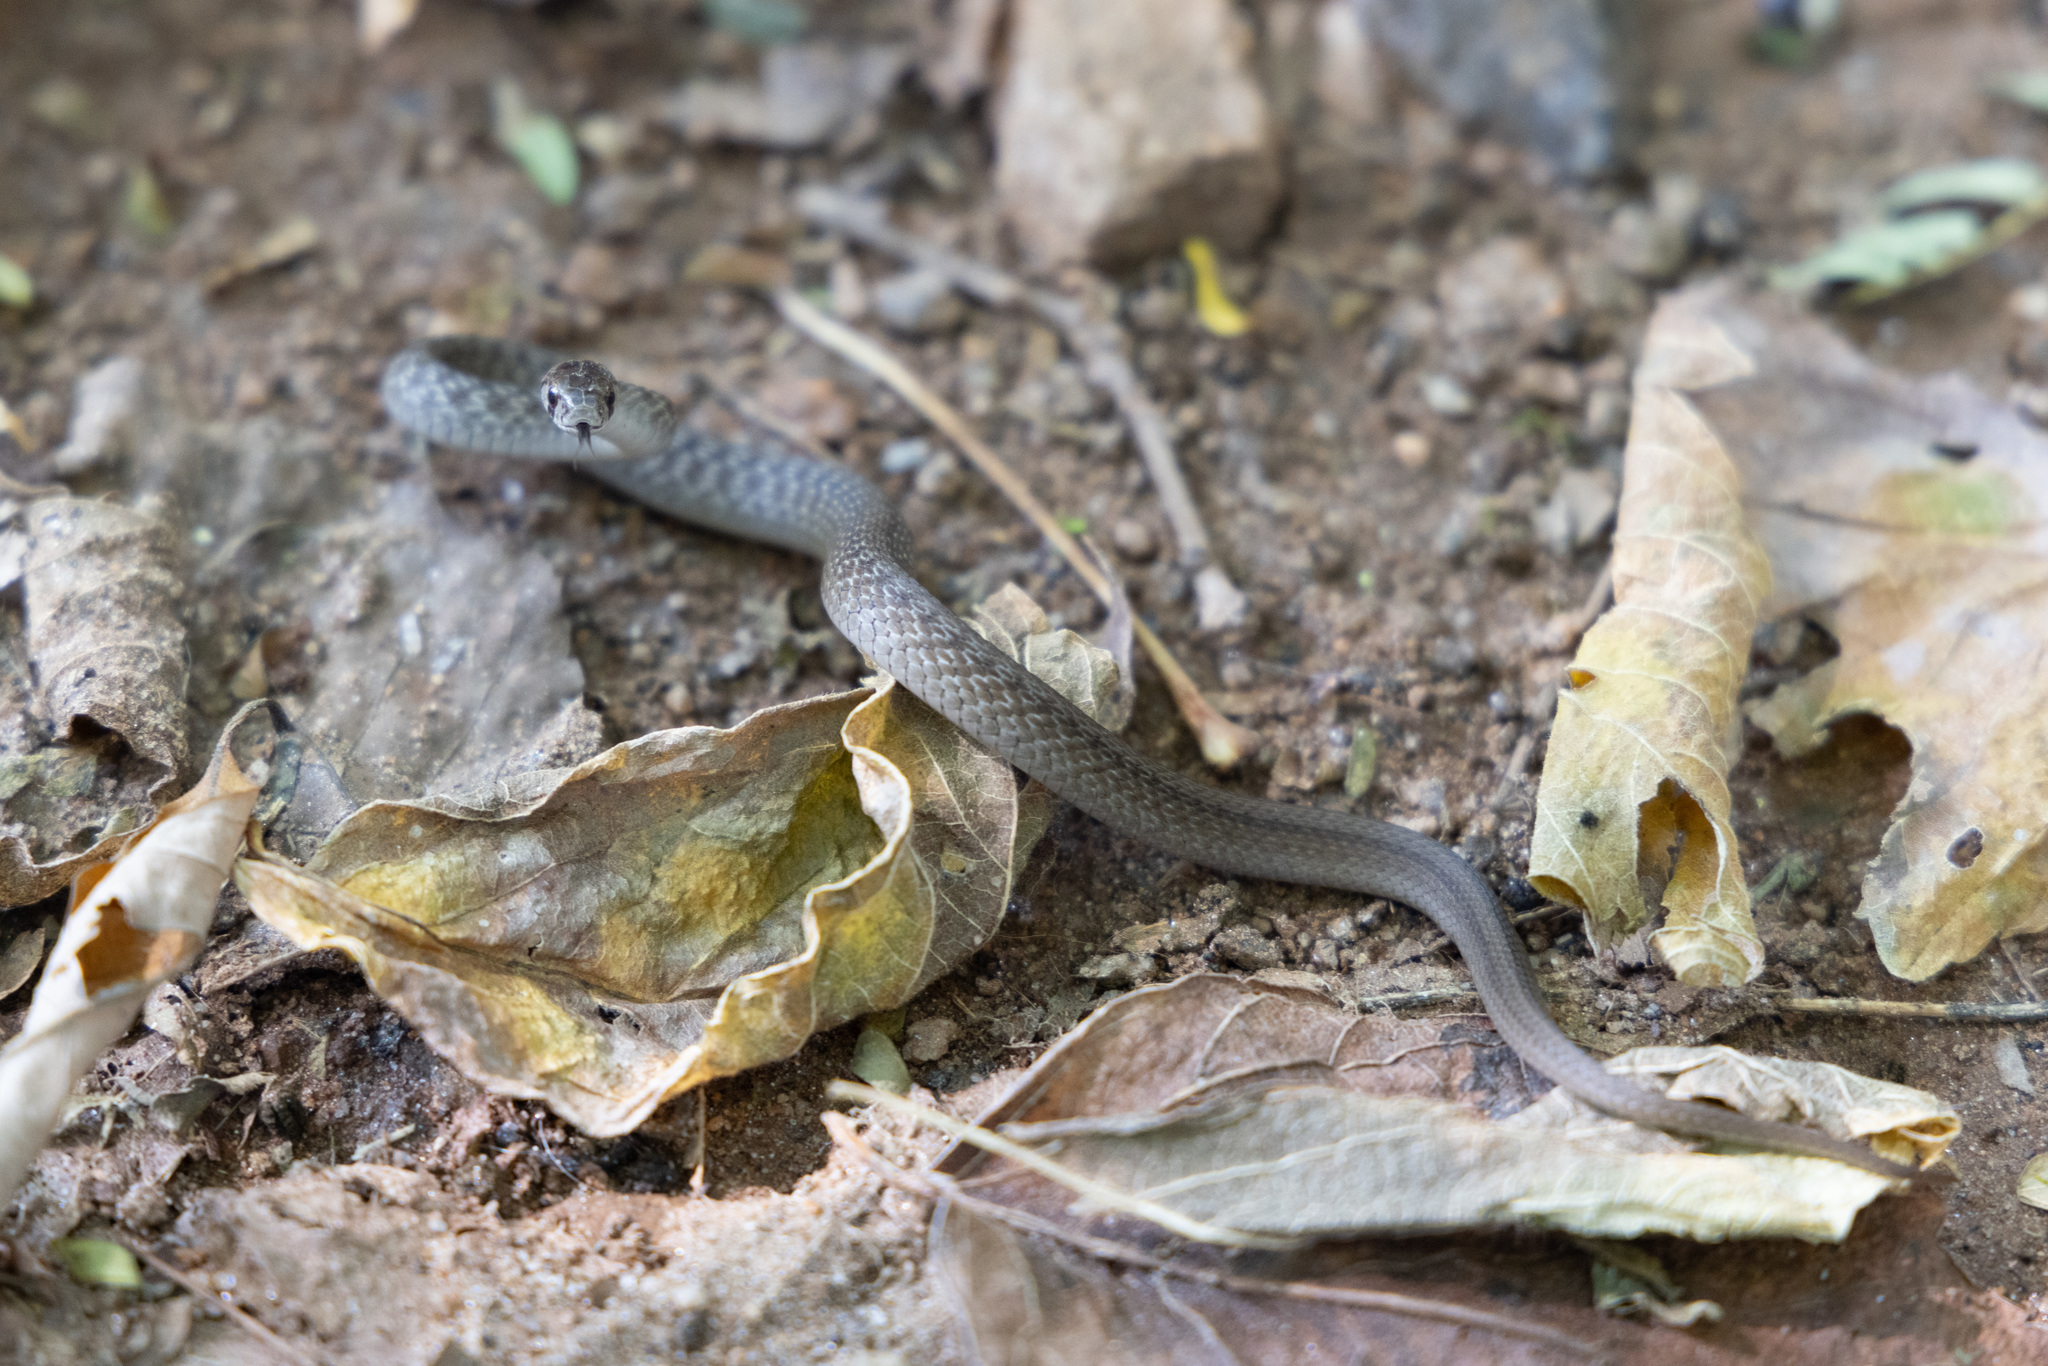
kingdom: Animalia
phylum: Chordata
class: Squamata
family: Colubridae
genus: Storeria
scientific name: Storeria dekayi
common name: (dekay’s) brown snake
